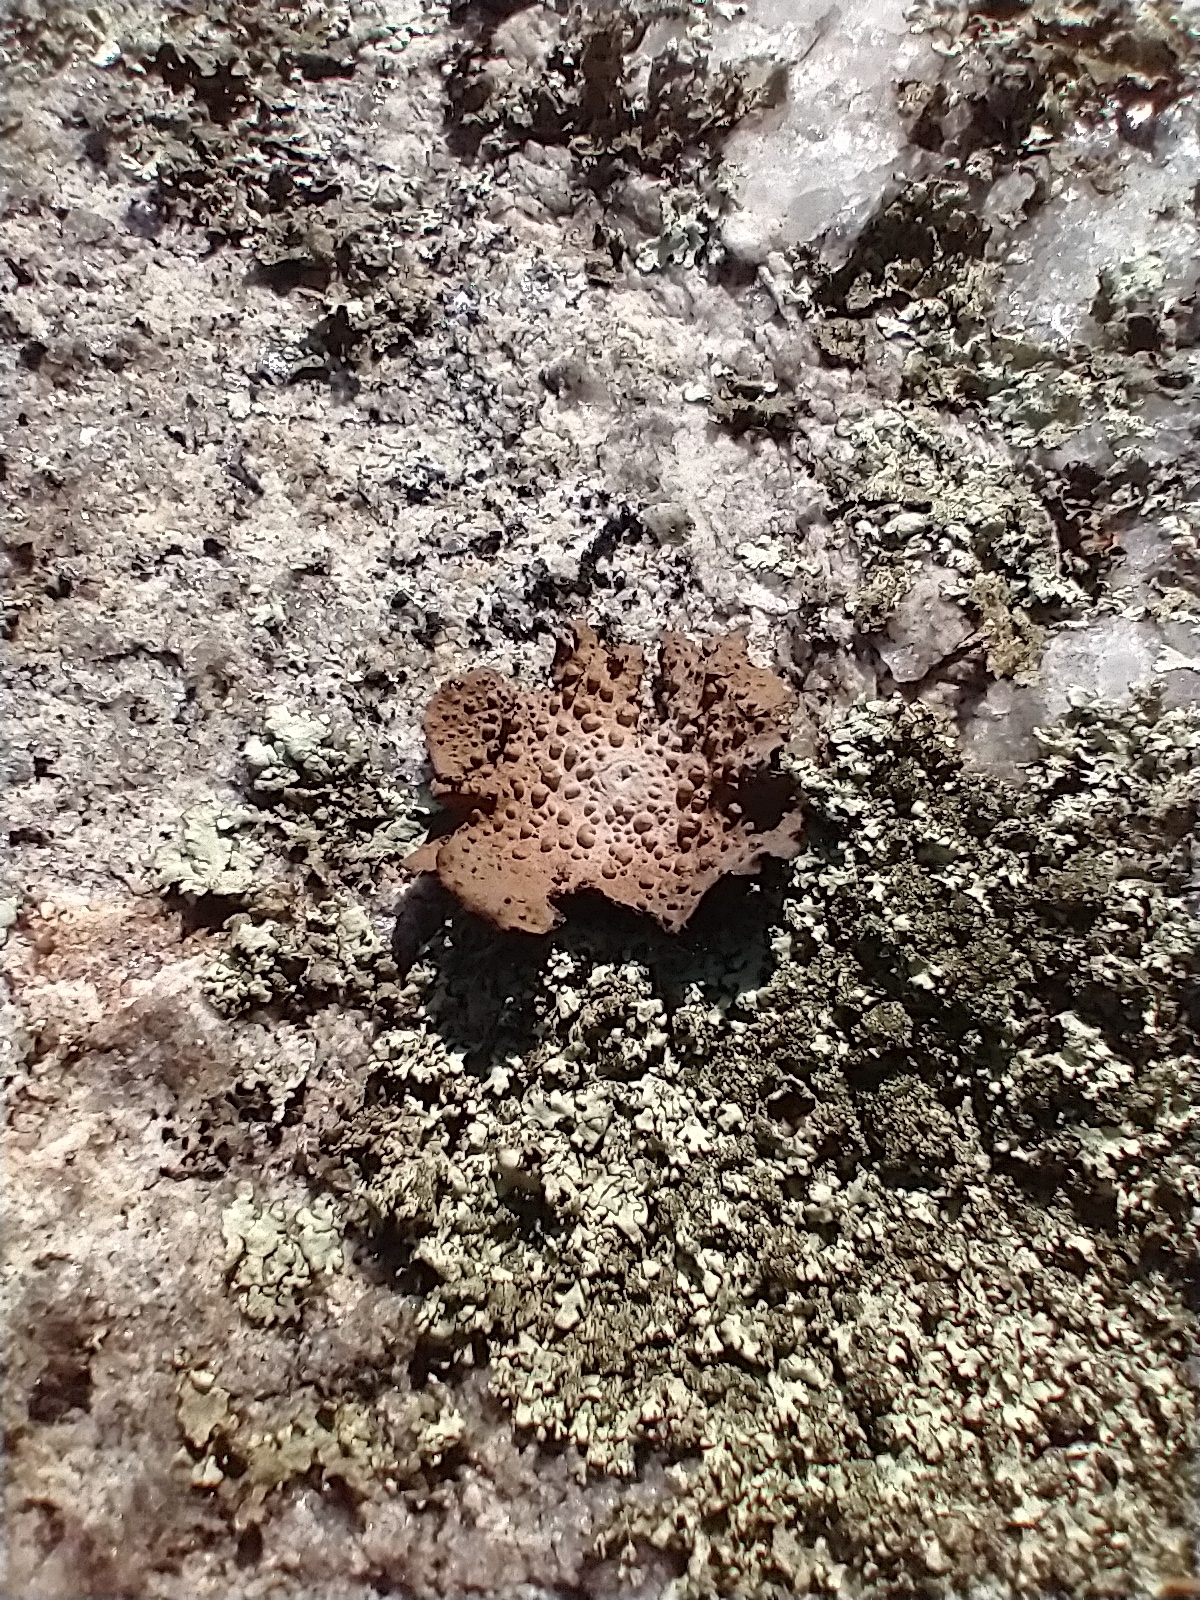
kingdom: Fungi
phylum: Ascomycota
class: Lecanoromycetes
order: Umbilicariales
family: Umbilicariaceae
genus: Lasallia
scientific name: Lasallia papulosa
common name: Common toadskin lichen
